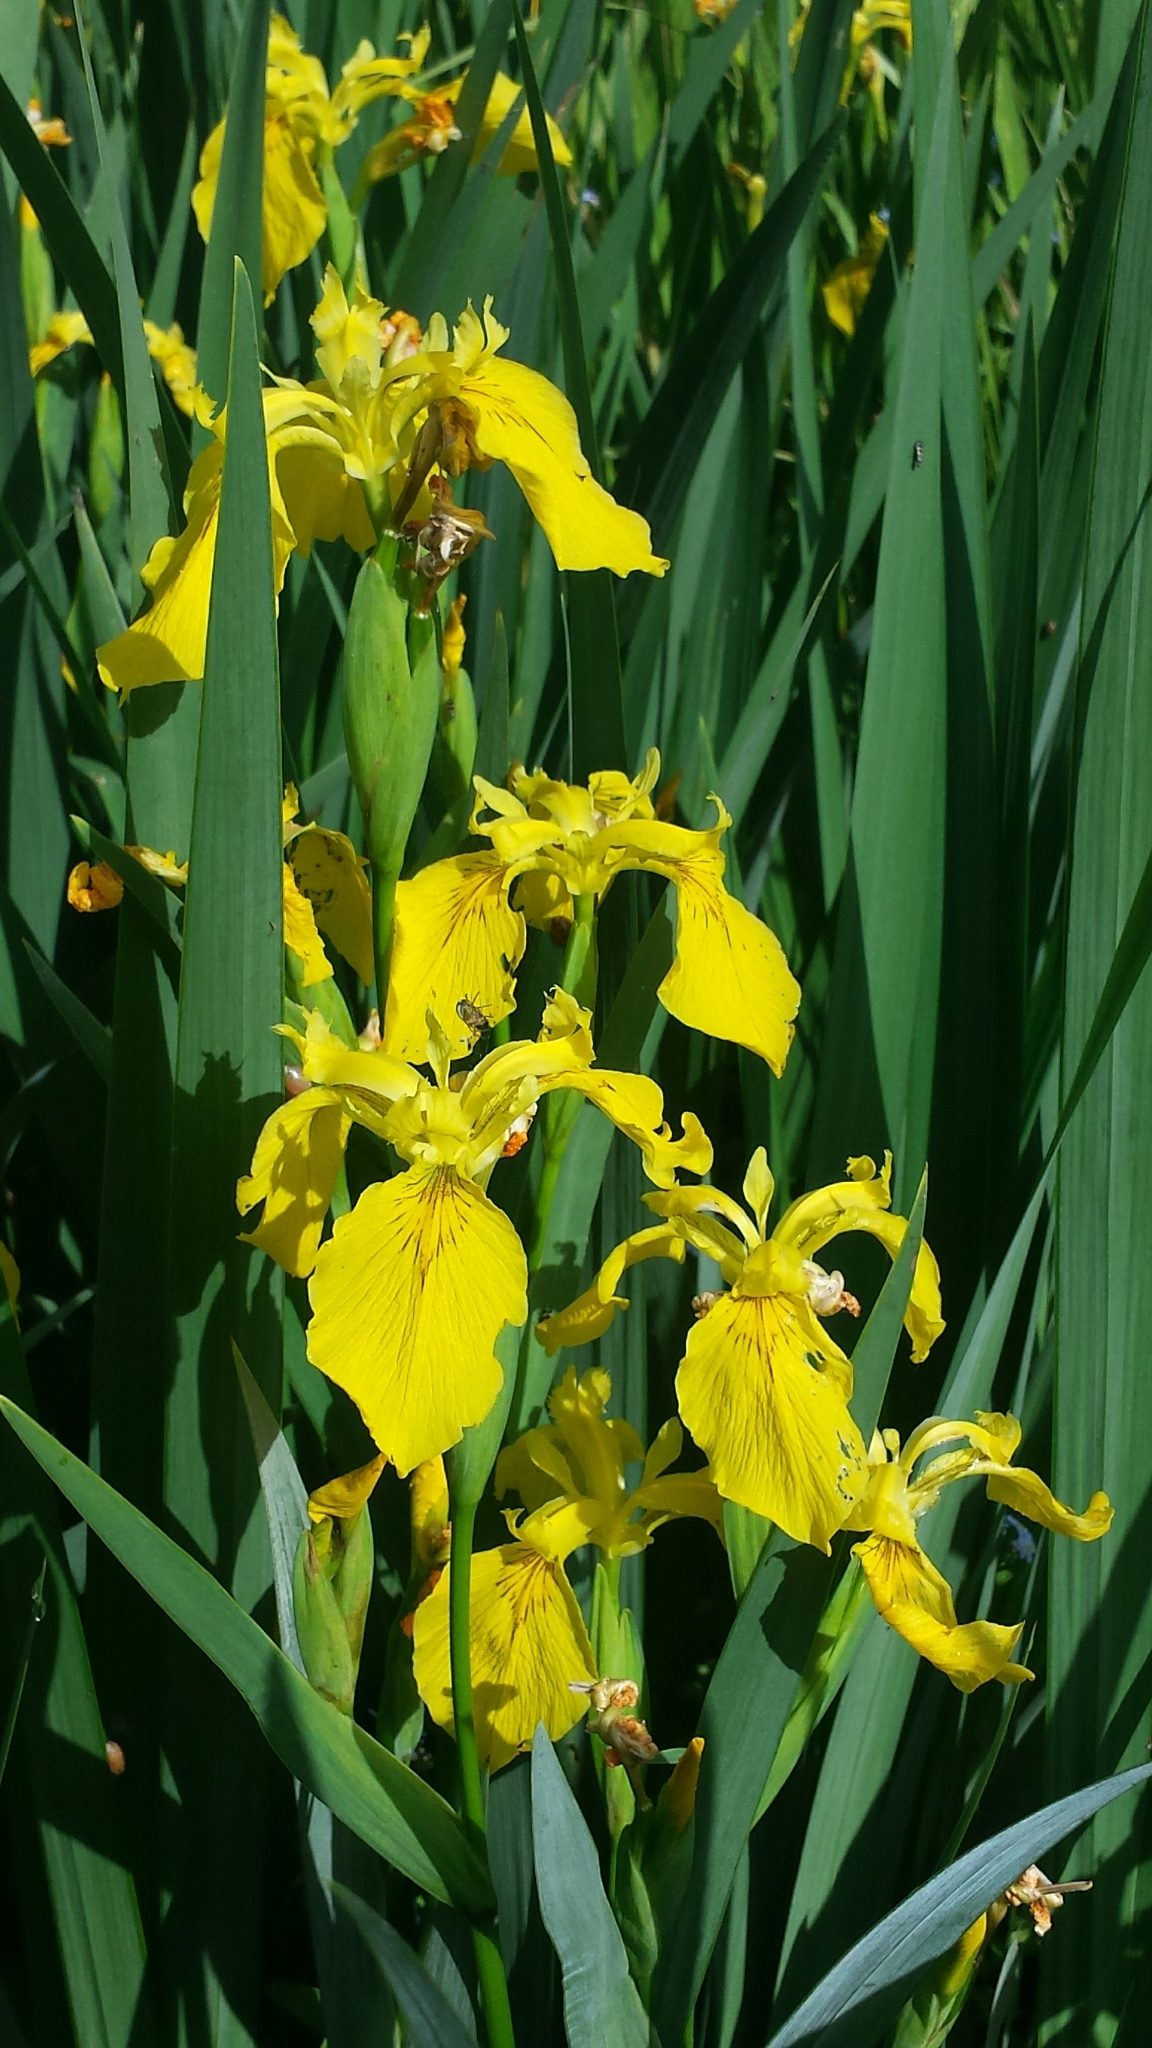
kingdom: Plantae
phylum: Tracheophyta
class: Liliopsida
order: Asparagales
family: Iridaceae
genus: Iris
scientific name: Iris pseudacorus
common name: Yellow flag
